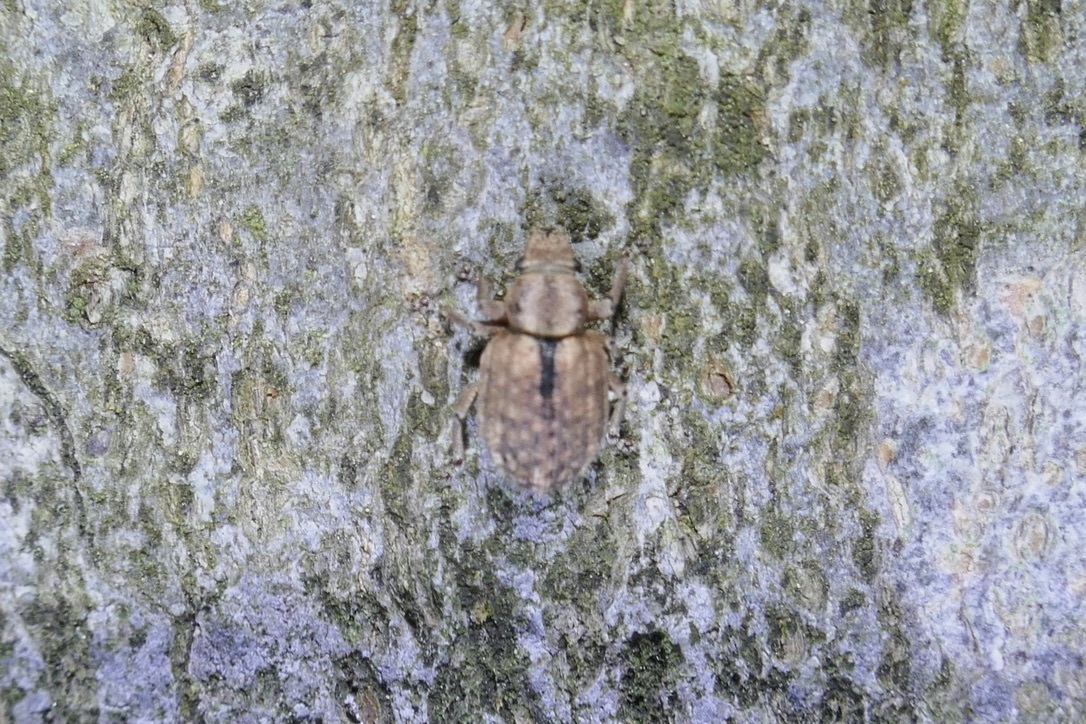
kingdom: Animalia
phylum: Arthropoda
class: Insecta
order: Coleoptera
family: Curculionidae
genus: Strophosoma
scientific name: Strophosoma melanogrammum
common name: Weevil
